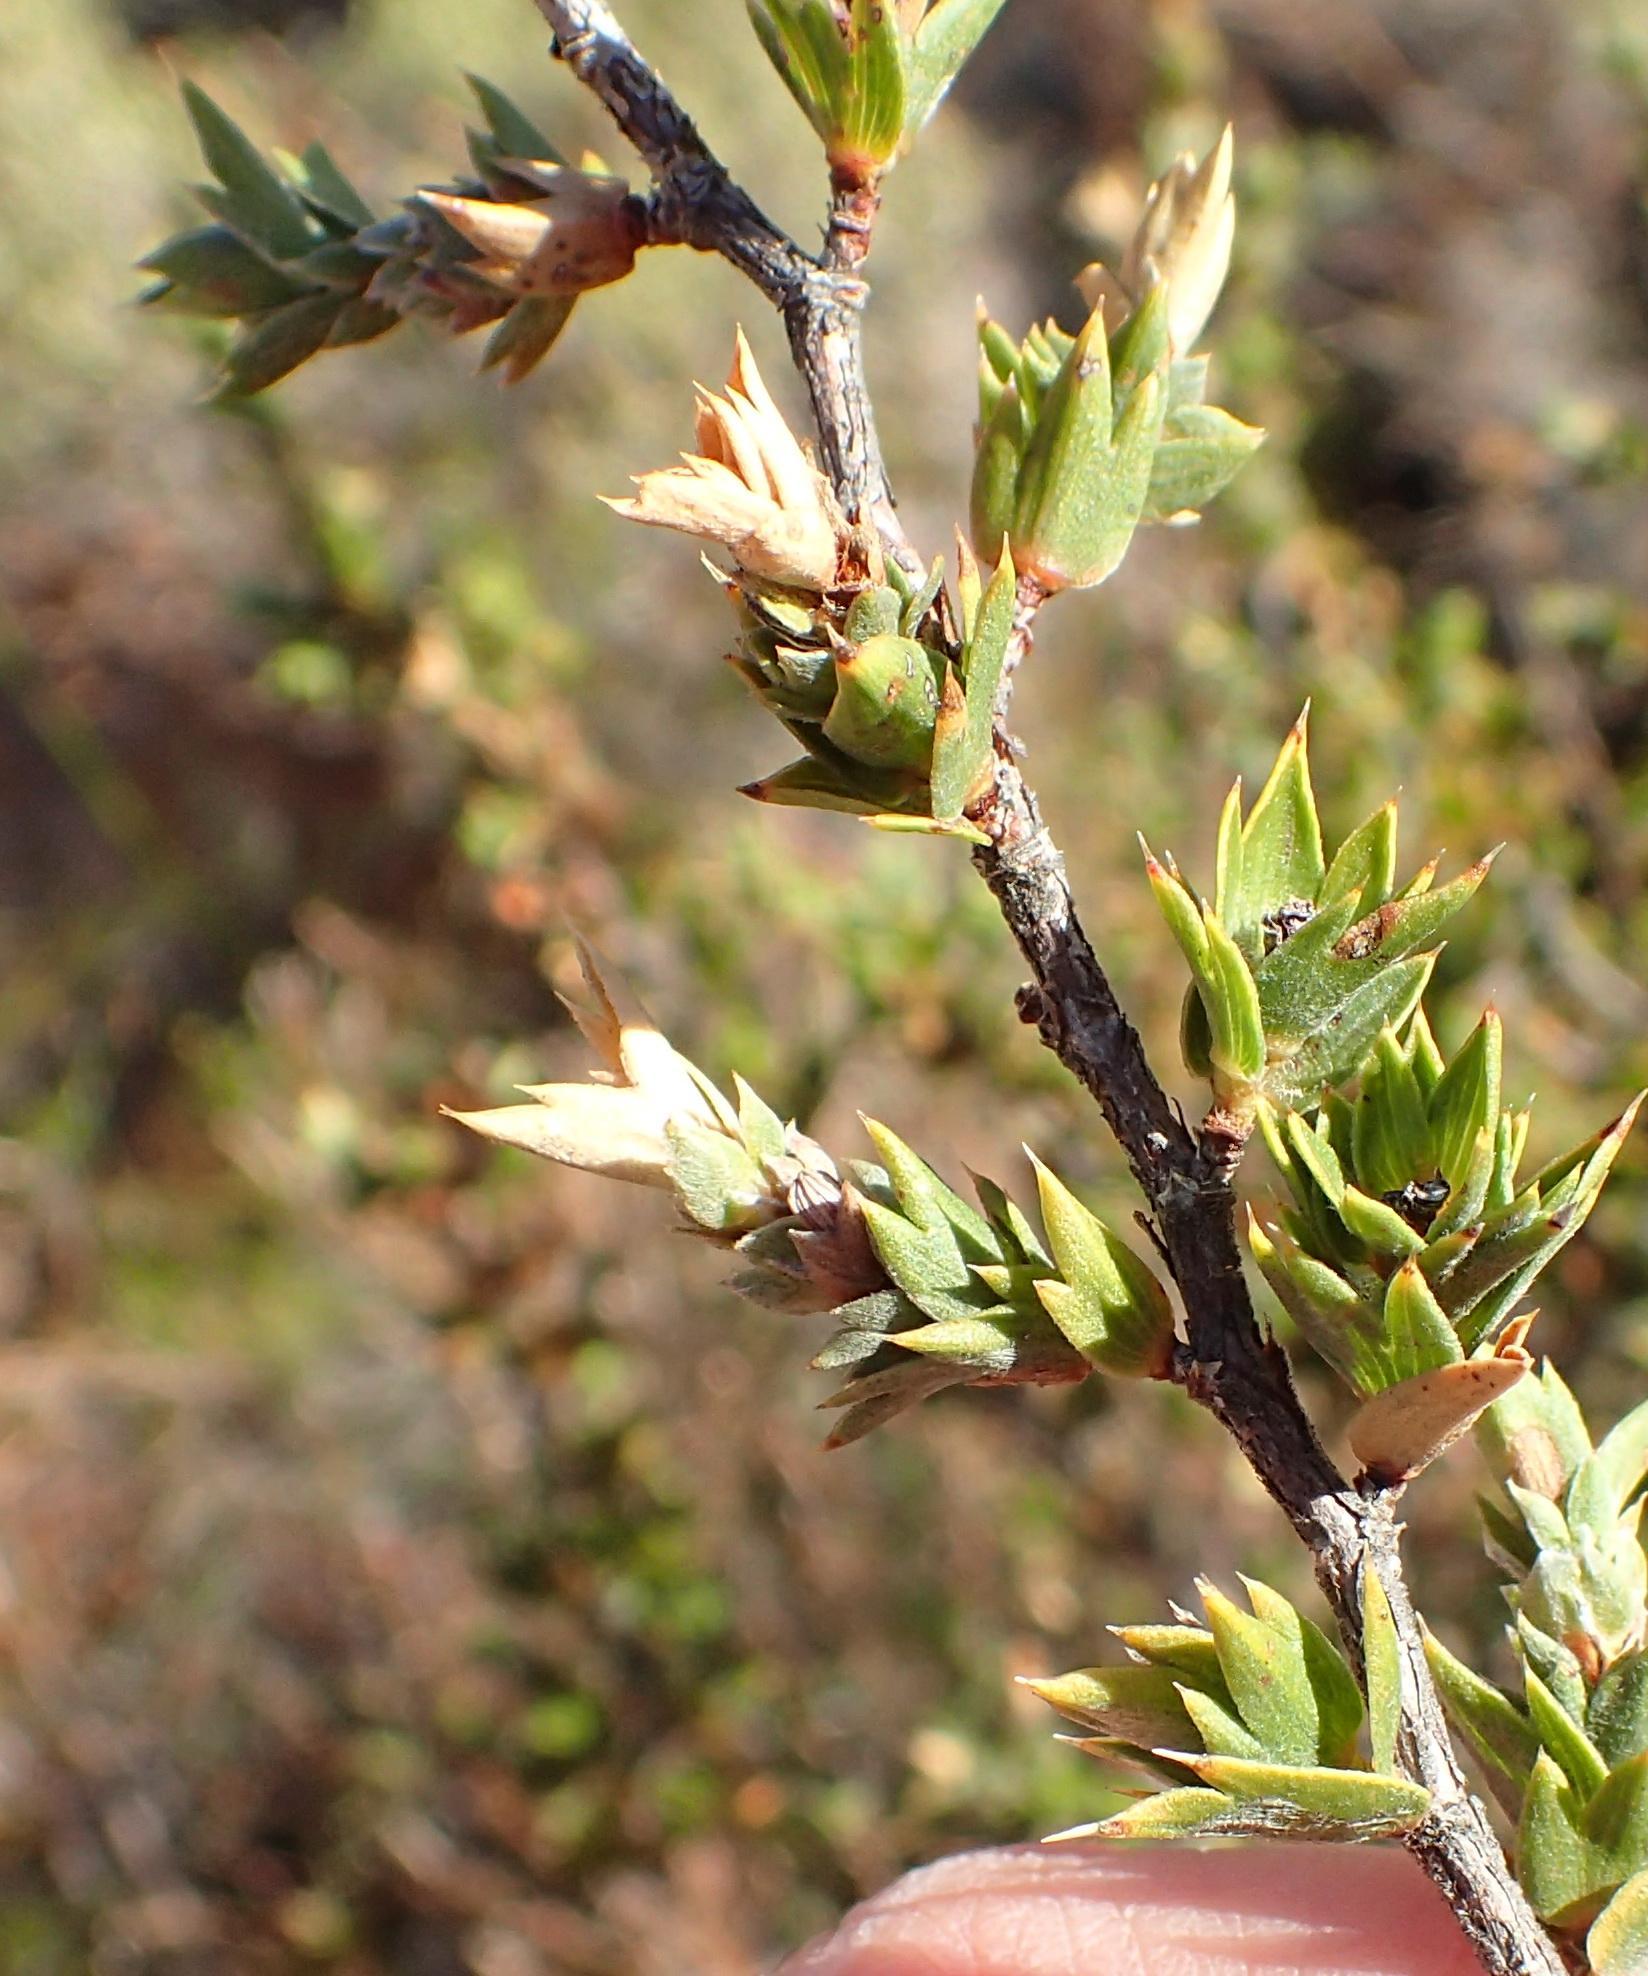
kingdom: Plantae
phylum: Tracheophyta
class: Magnoliopsida
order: Rosales
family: Rosaceae
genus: Cliffortia
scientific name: Cliffortia verrucosa
